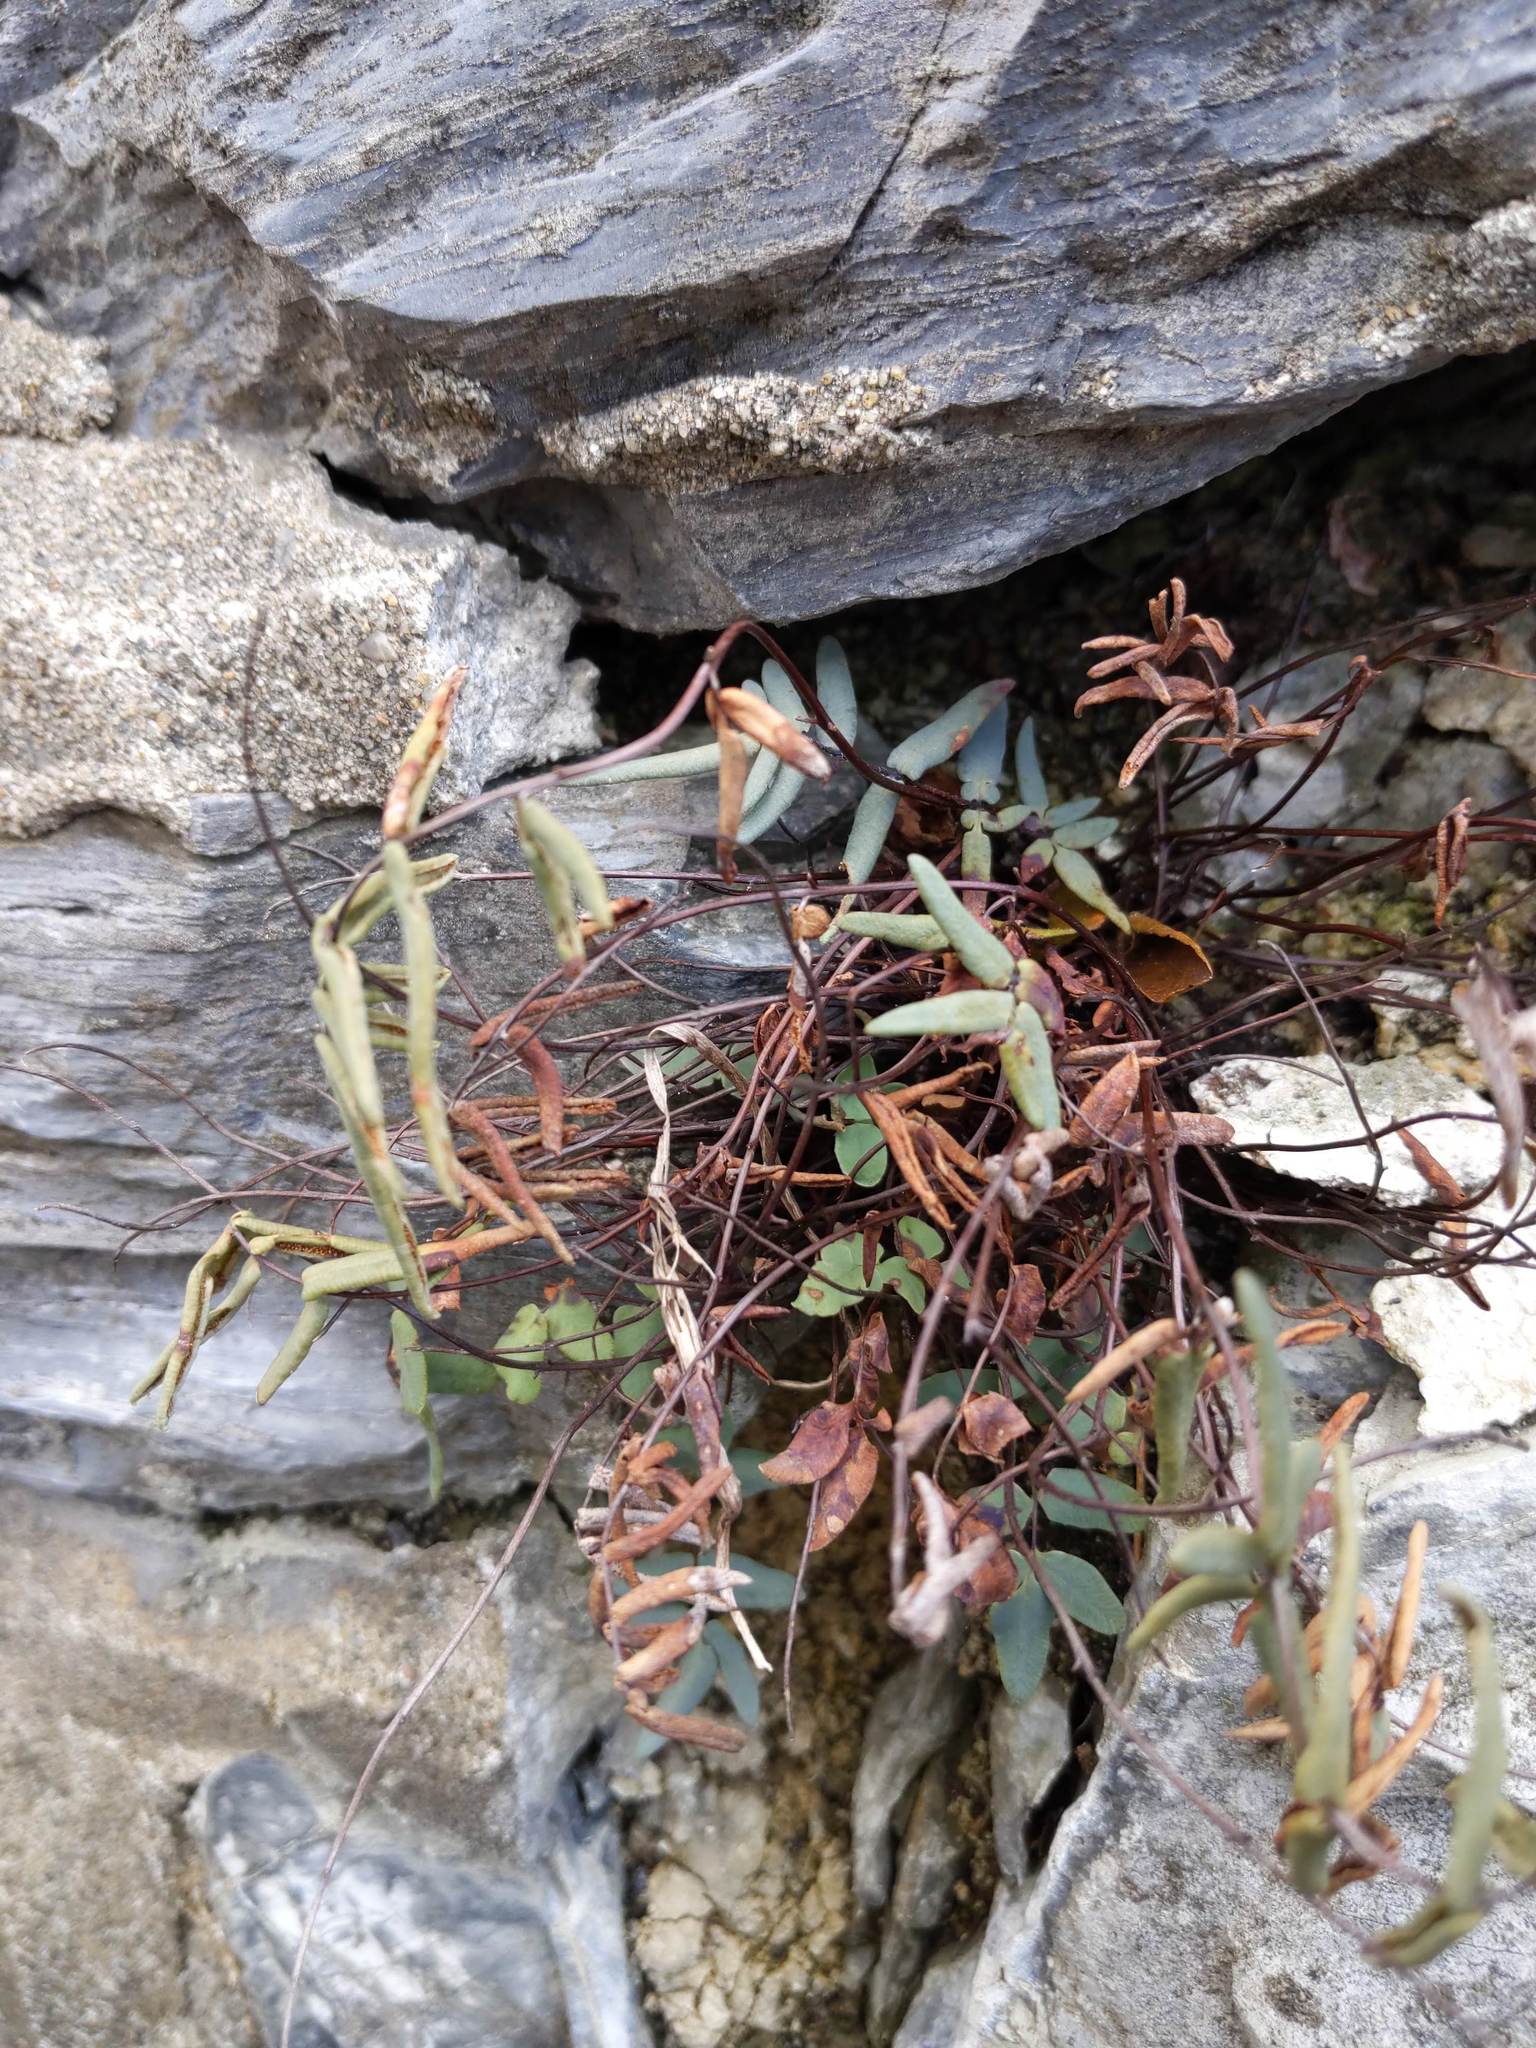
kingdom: Plantae
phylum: Tracheophyta
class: Polypodiopsida
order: Polypodiales
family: Pteridaceae
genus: Pellaea
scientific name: Pellaea glabella
